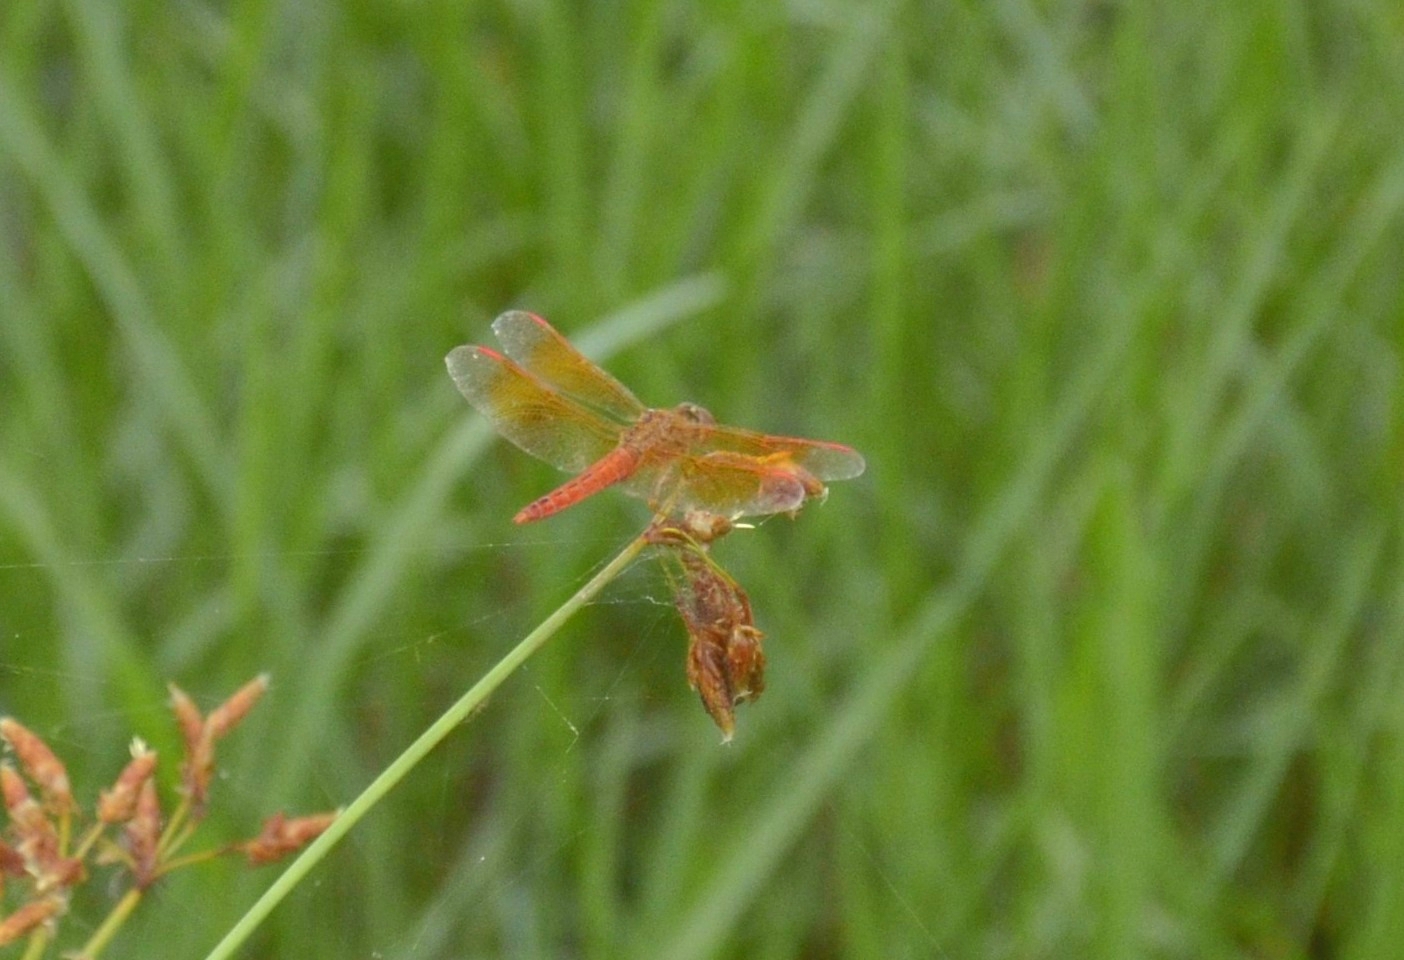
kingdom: Animalia
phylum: Arthropoda
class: Insecta
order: Odonata
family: Libellulidae
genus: Brachythemis
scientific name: Brachythemis contaminata
